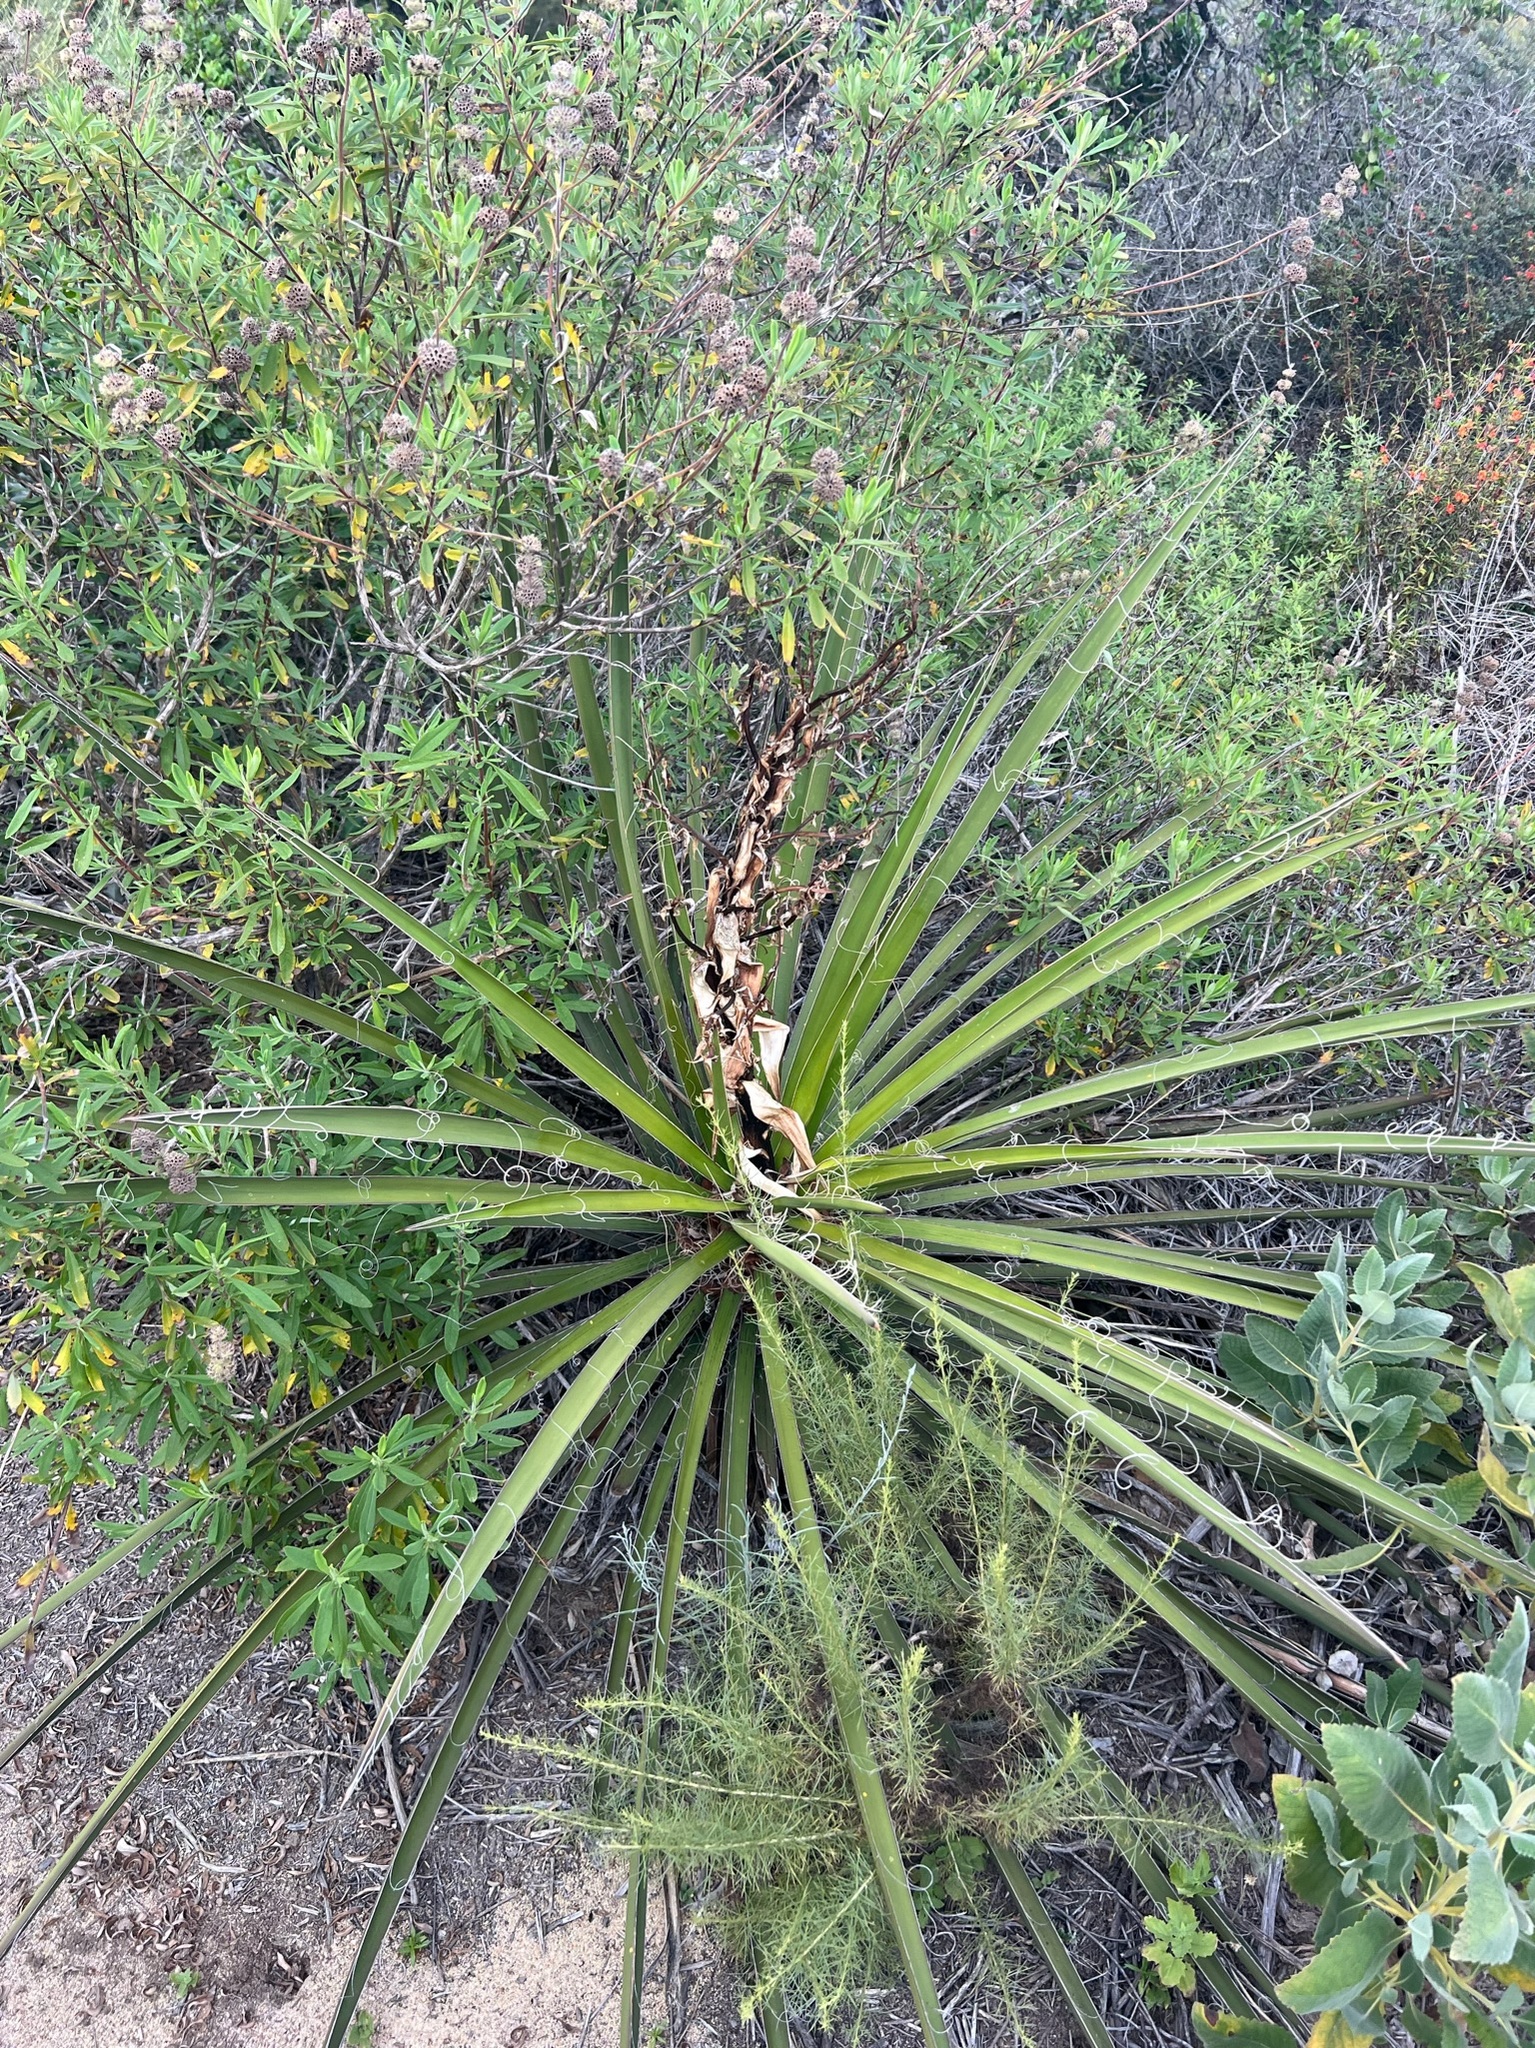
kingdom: Plantae
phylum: Tracheophyta
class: Liliopsida
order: Asparagales
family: Asparagaceae
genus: Yucca
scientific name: Yucca schidigera
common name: Mojave yucca
